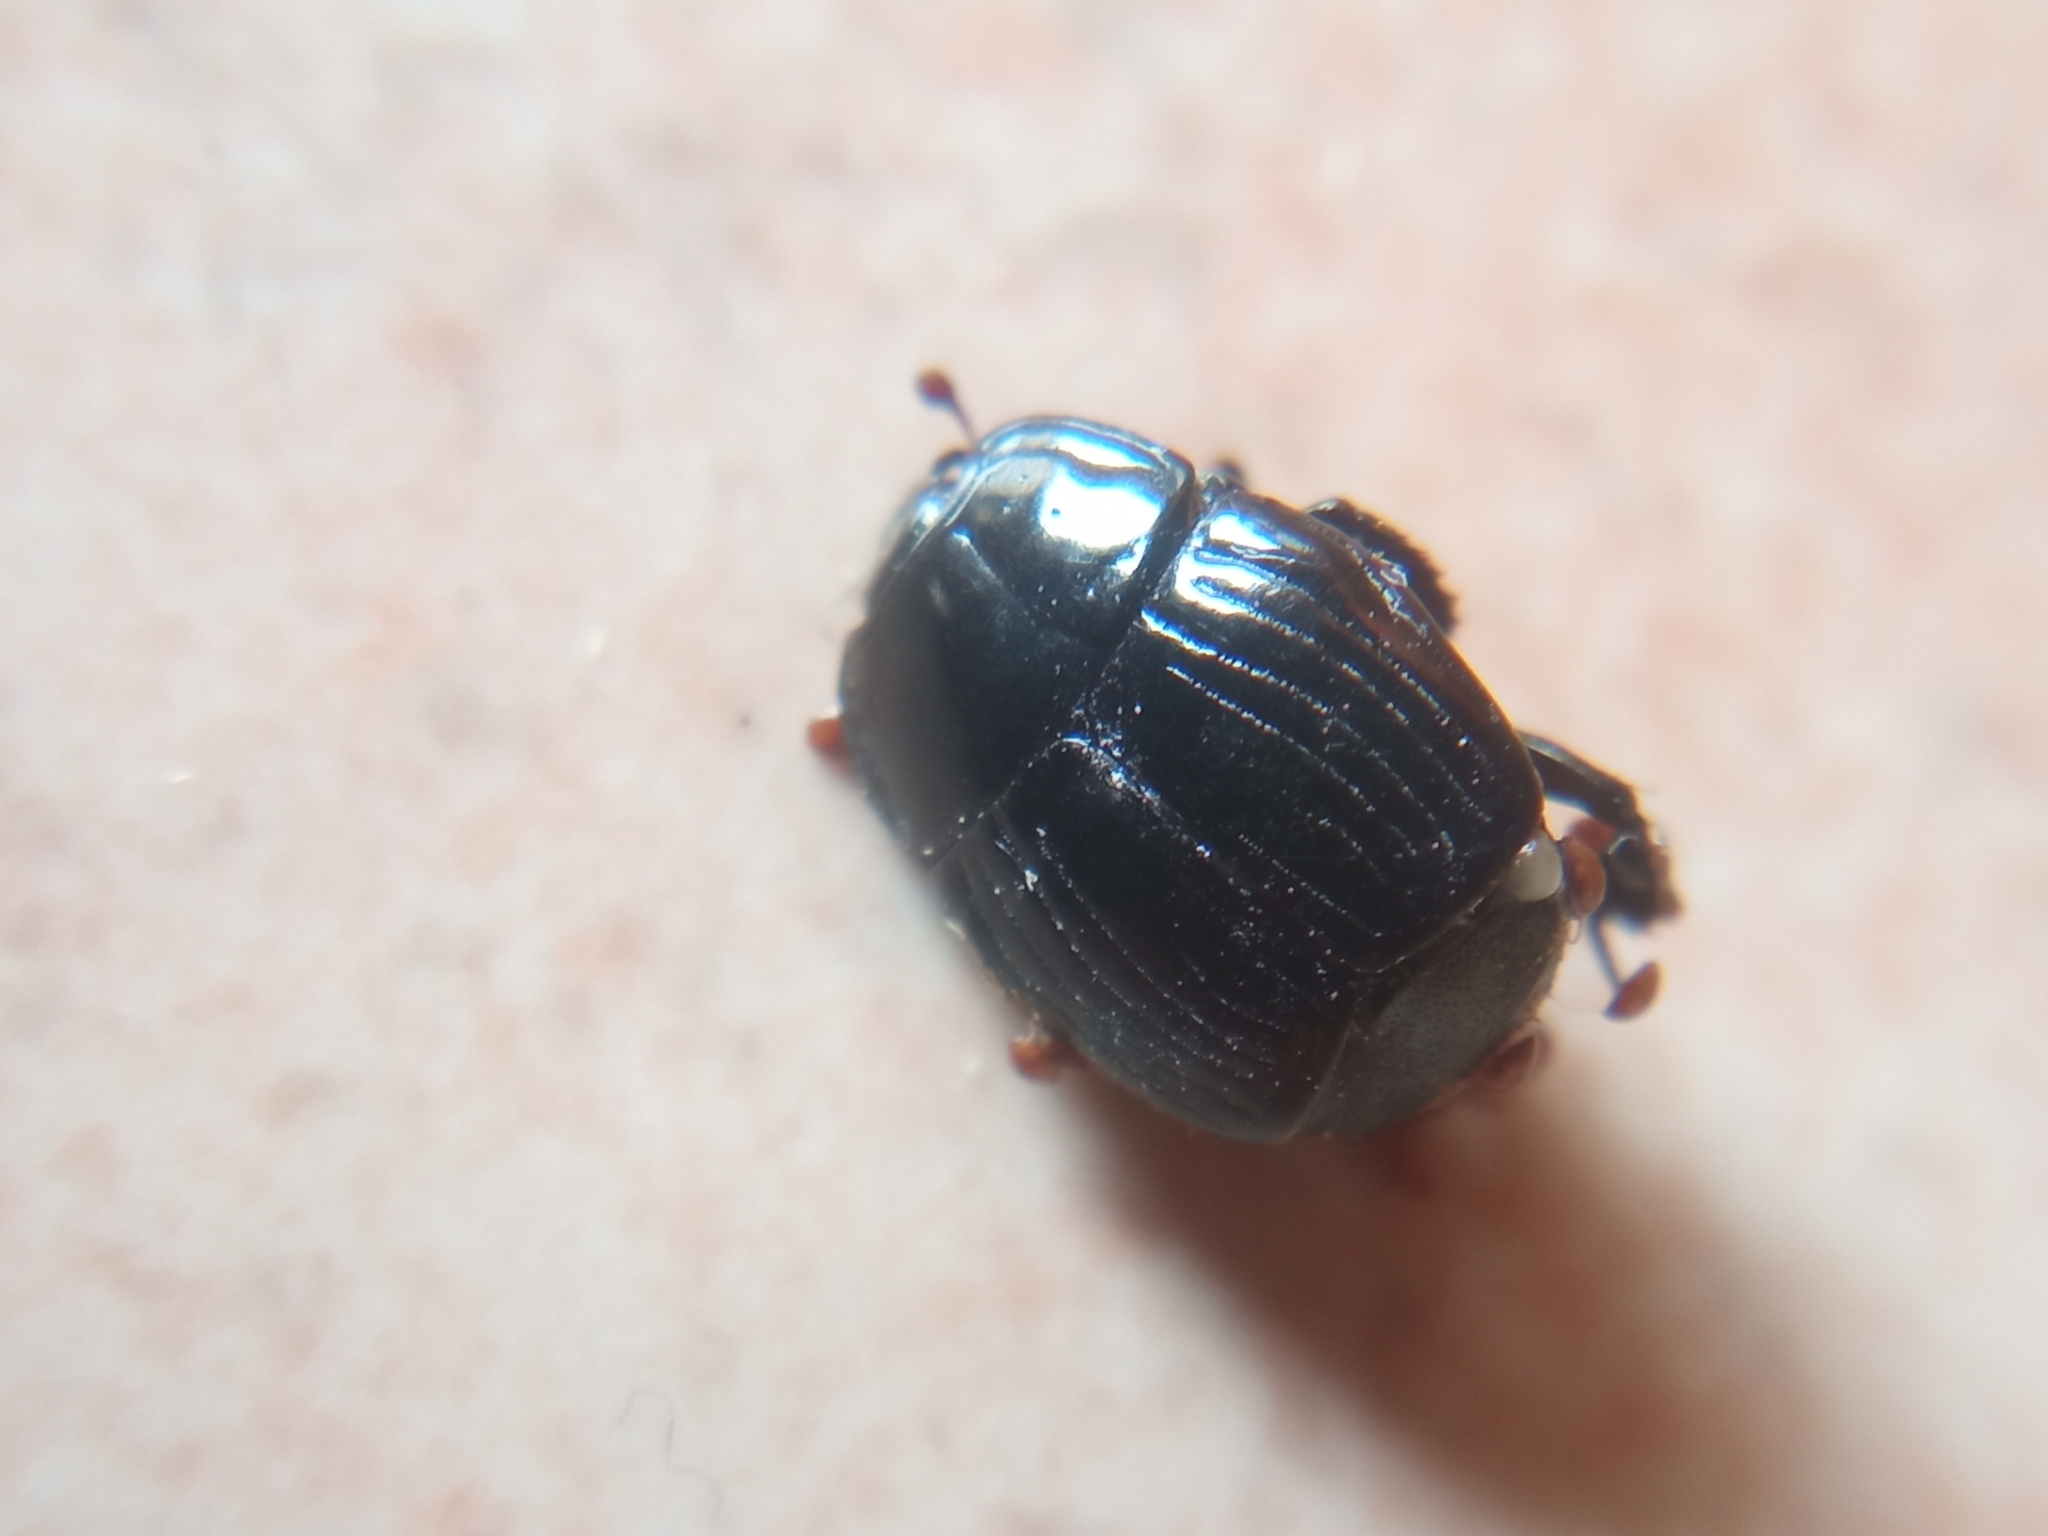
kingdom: Animalia
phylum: Arthropoda
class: Insecta
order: Coleoptera
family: Histeridae
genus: Margarinotus
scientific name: Margarinotus merdarius
